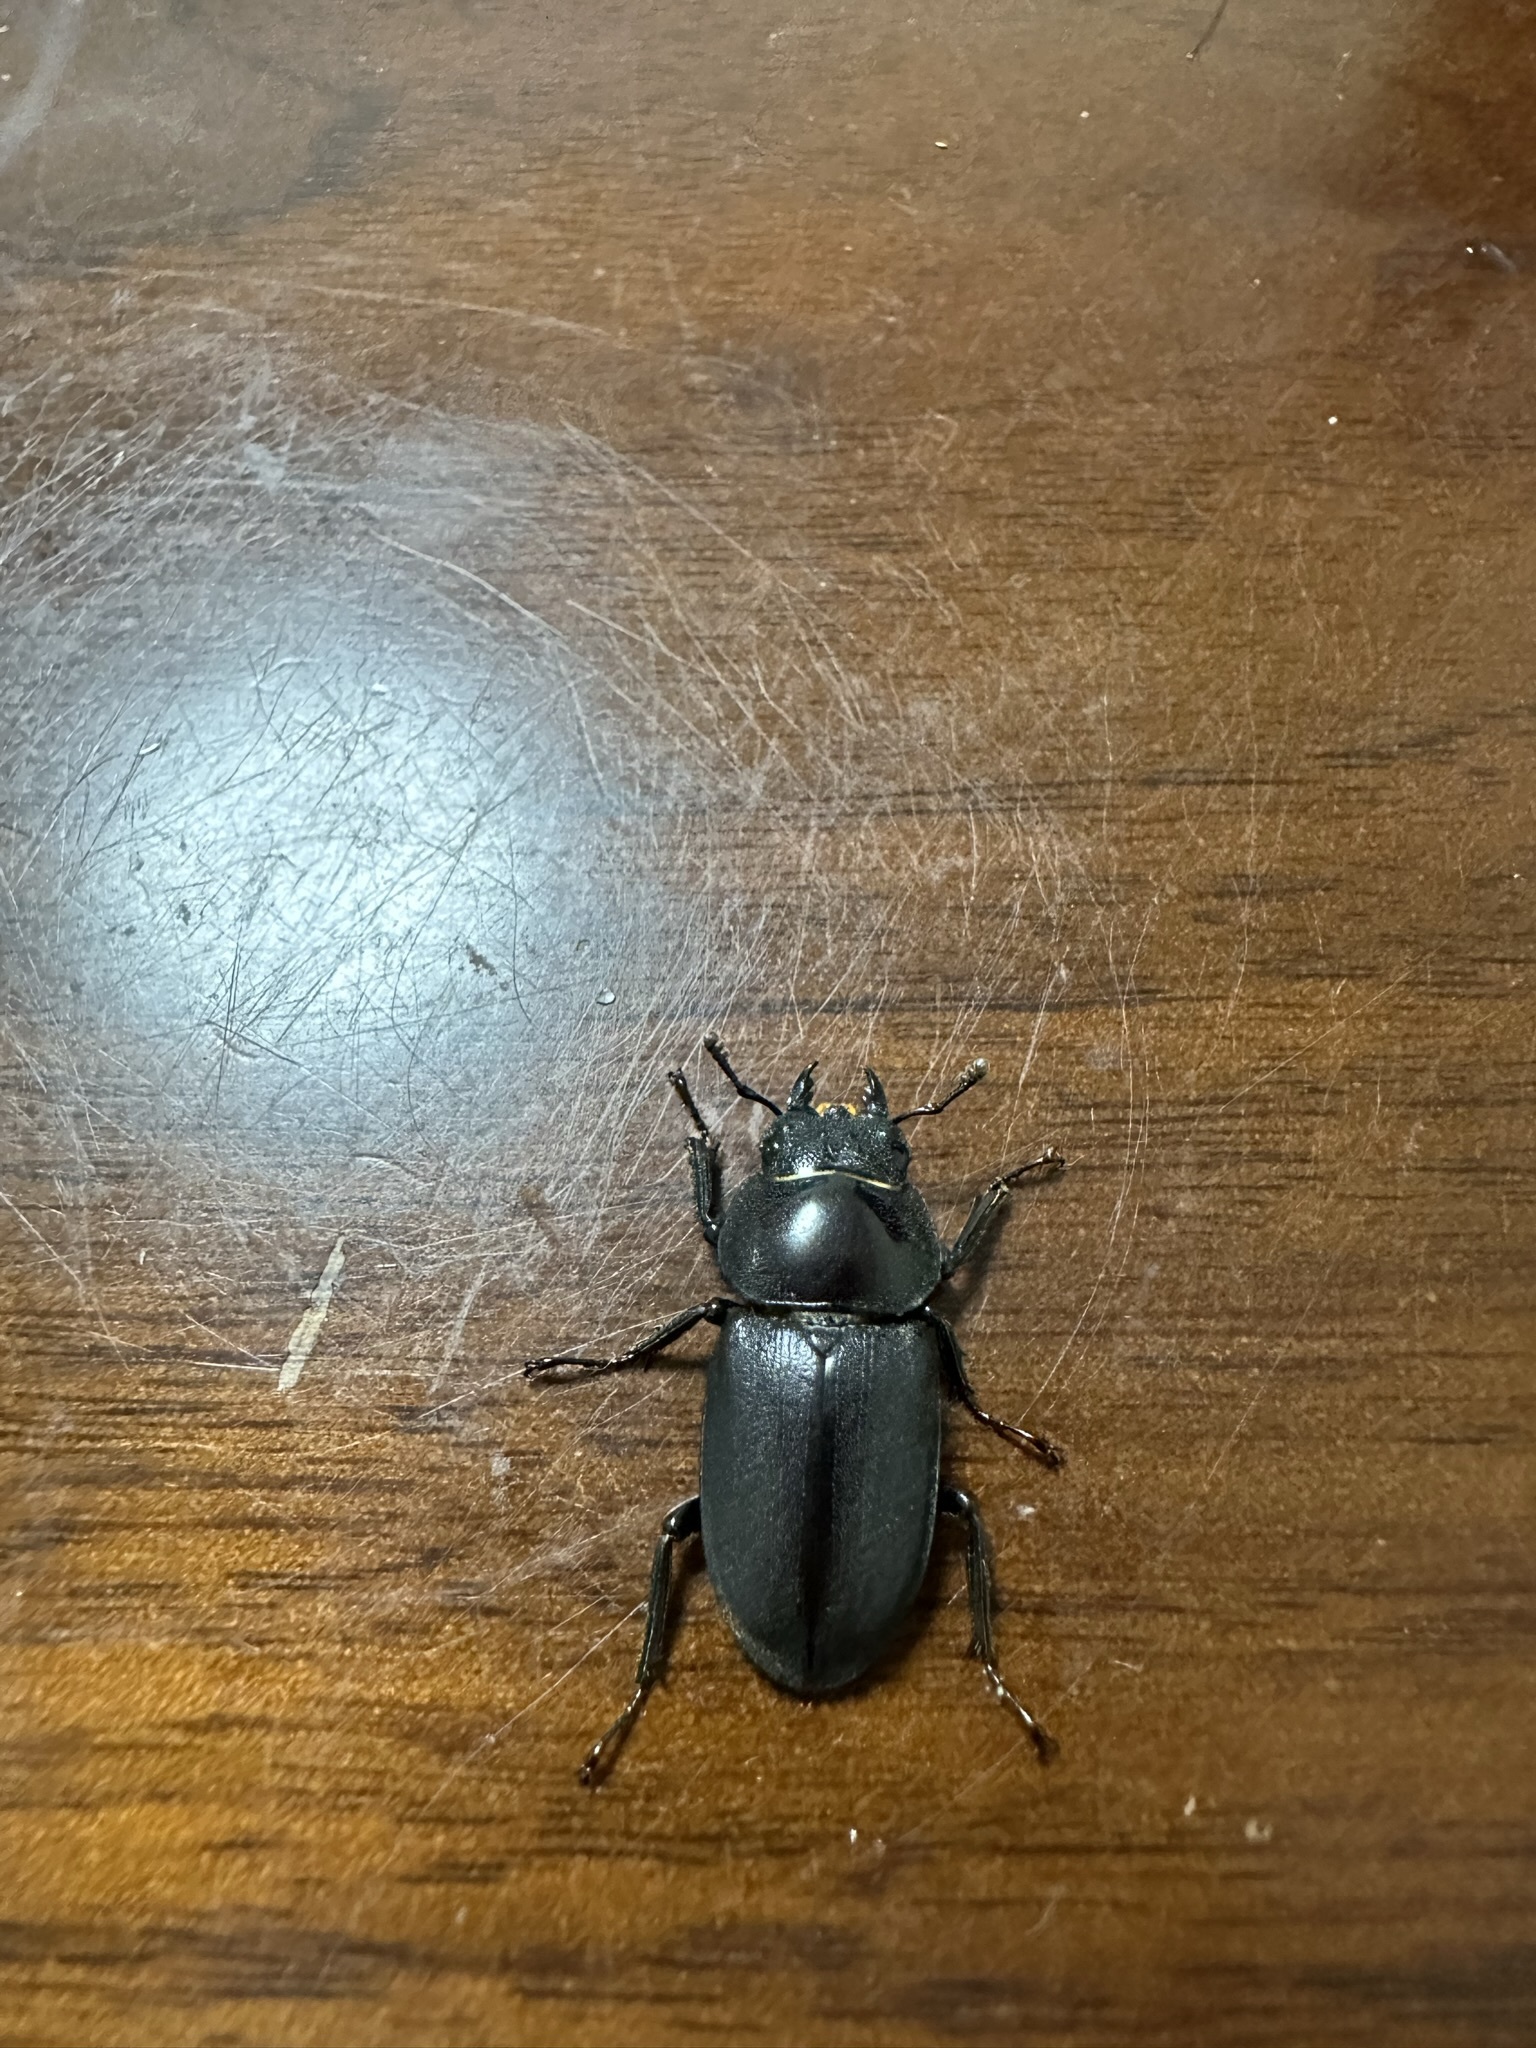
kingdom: Animalia
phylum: Arthropoda
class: Insecta
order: Coleoptera
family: Lucanidae
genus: Dorcus
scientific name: Dorcus rectus
